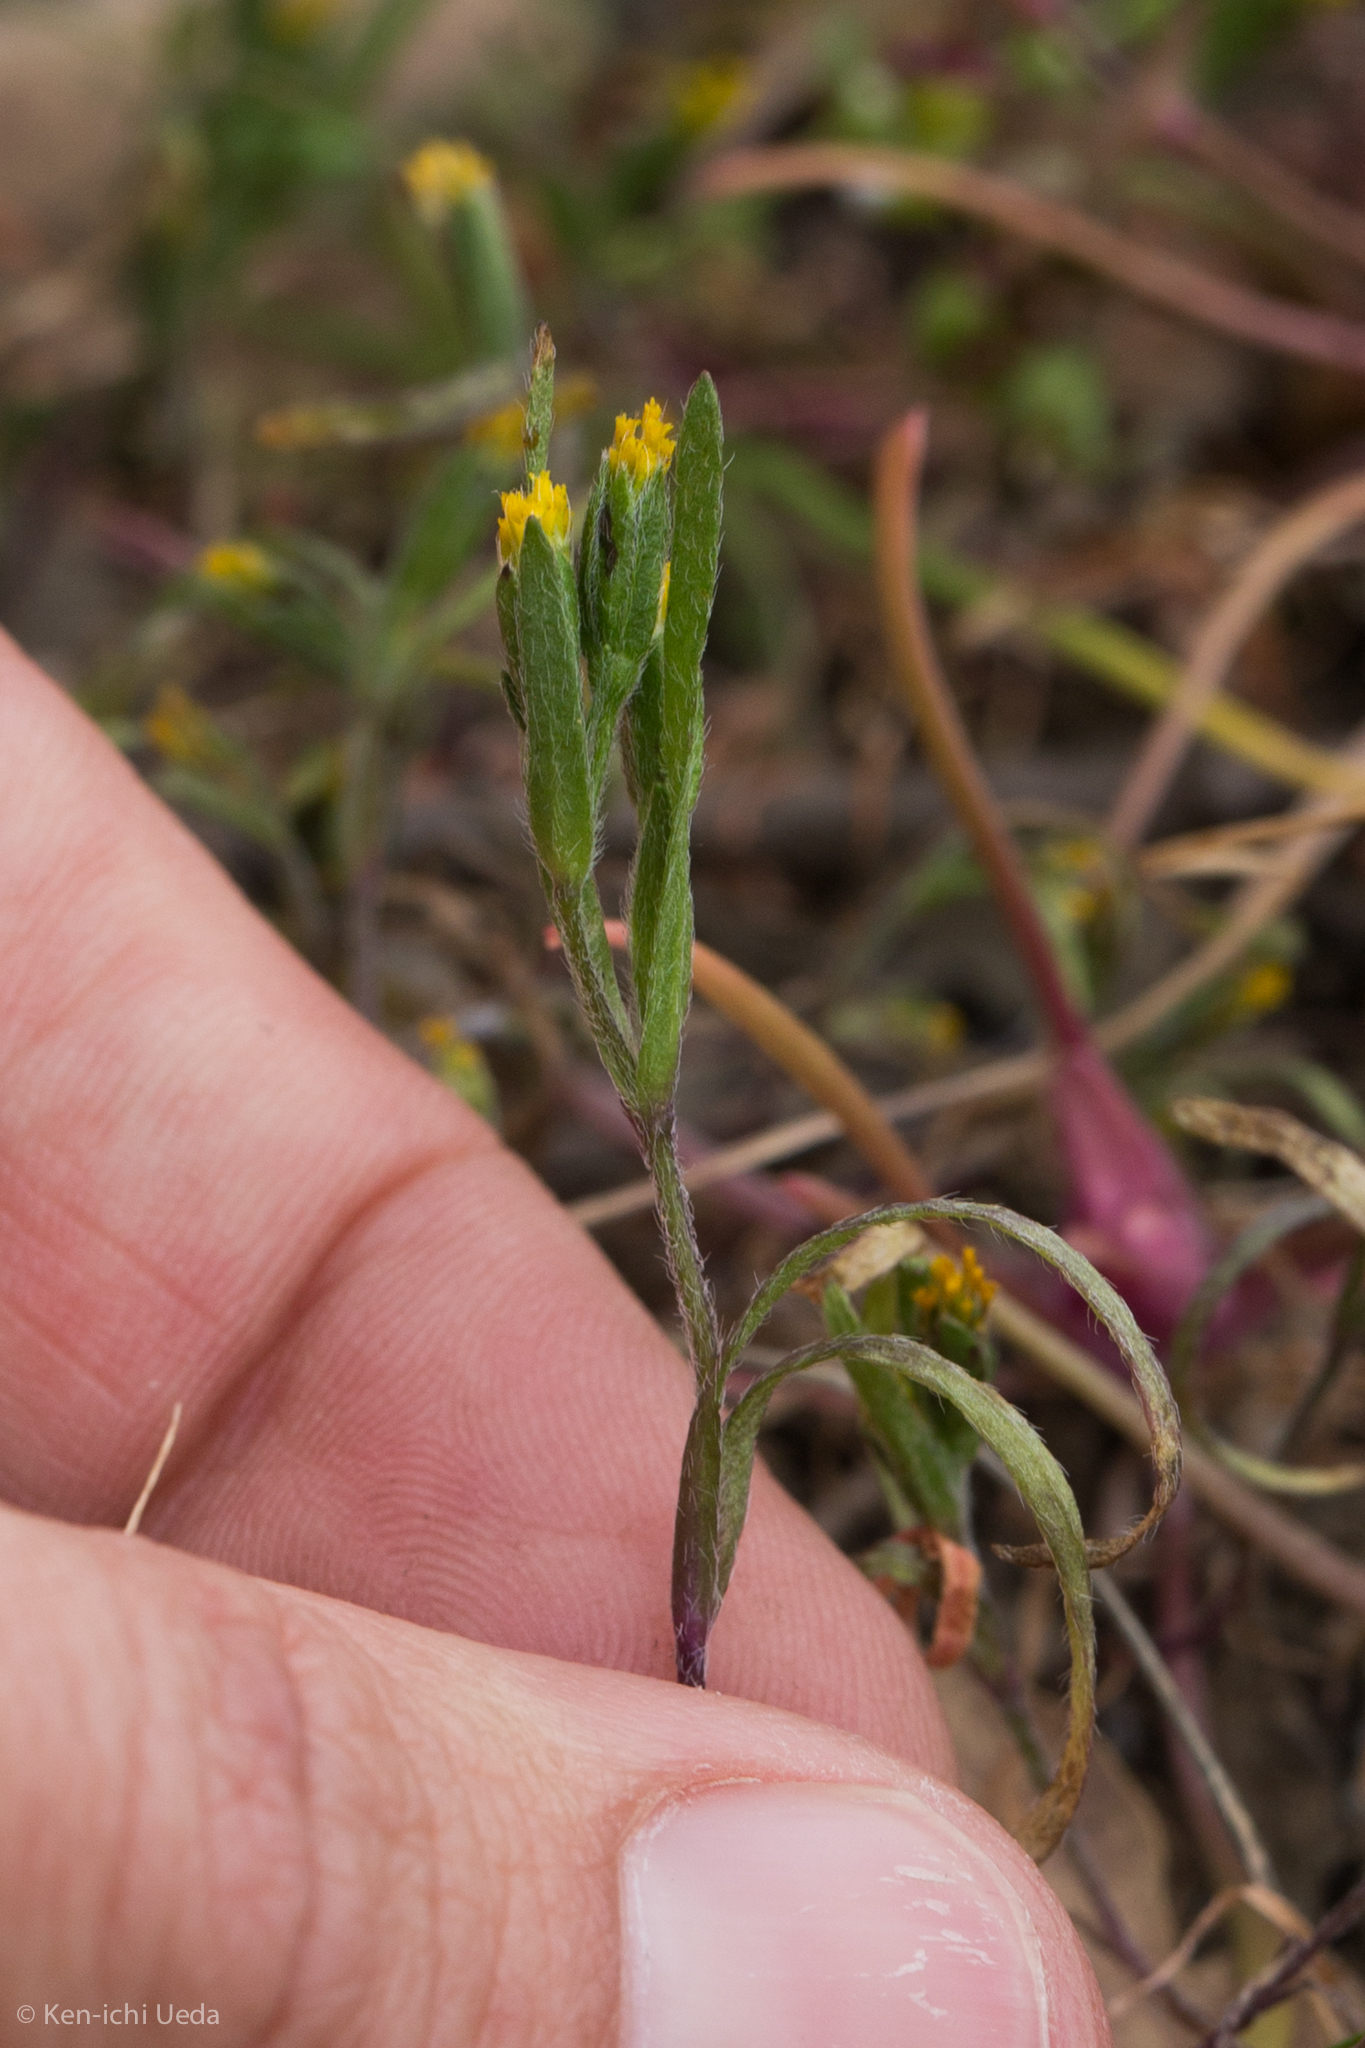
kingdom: Plantae
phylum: Tracheophyta
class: Magnoliopsida
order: Asterales
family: Asteraceae
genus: Lasthenia
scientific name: Lasthenia microglossa
